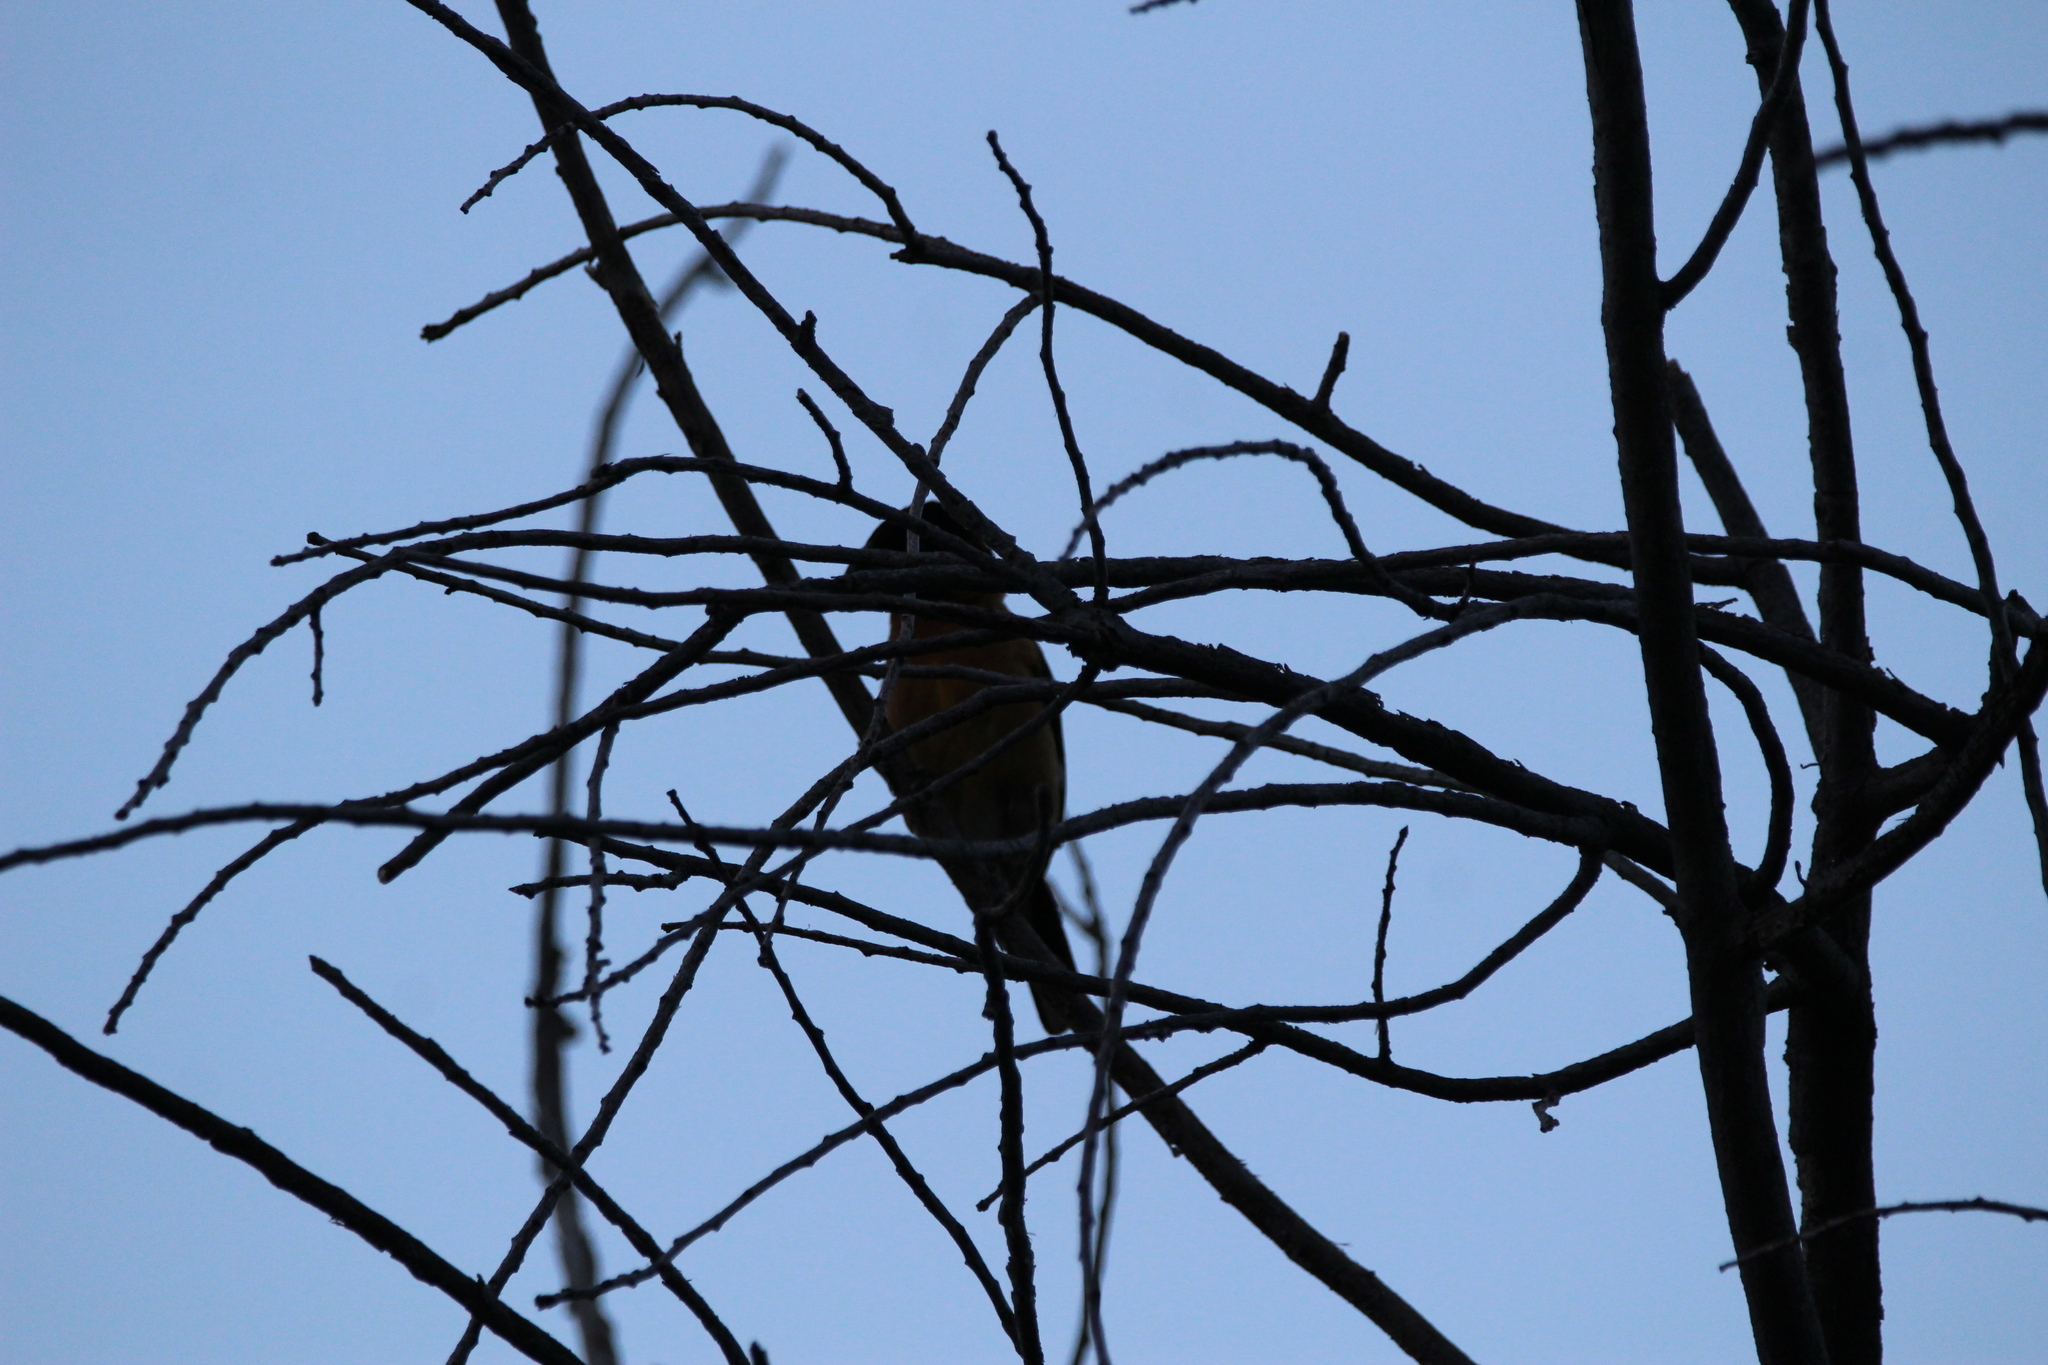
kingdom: Animalia
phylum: Chordata
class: Aves
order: Passeriformes
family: Cardinalidae
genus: Pheucticus
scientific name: Pheucticus melanocephalus
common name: Black-headed grosbeak
